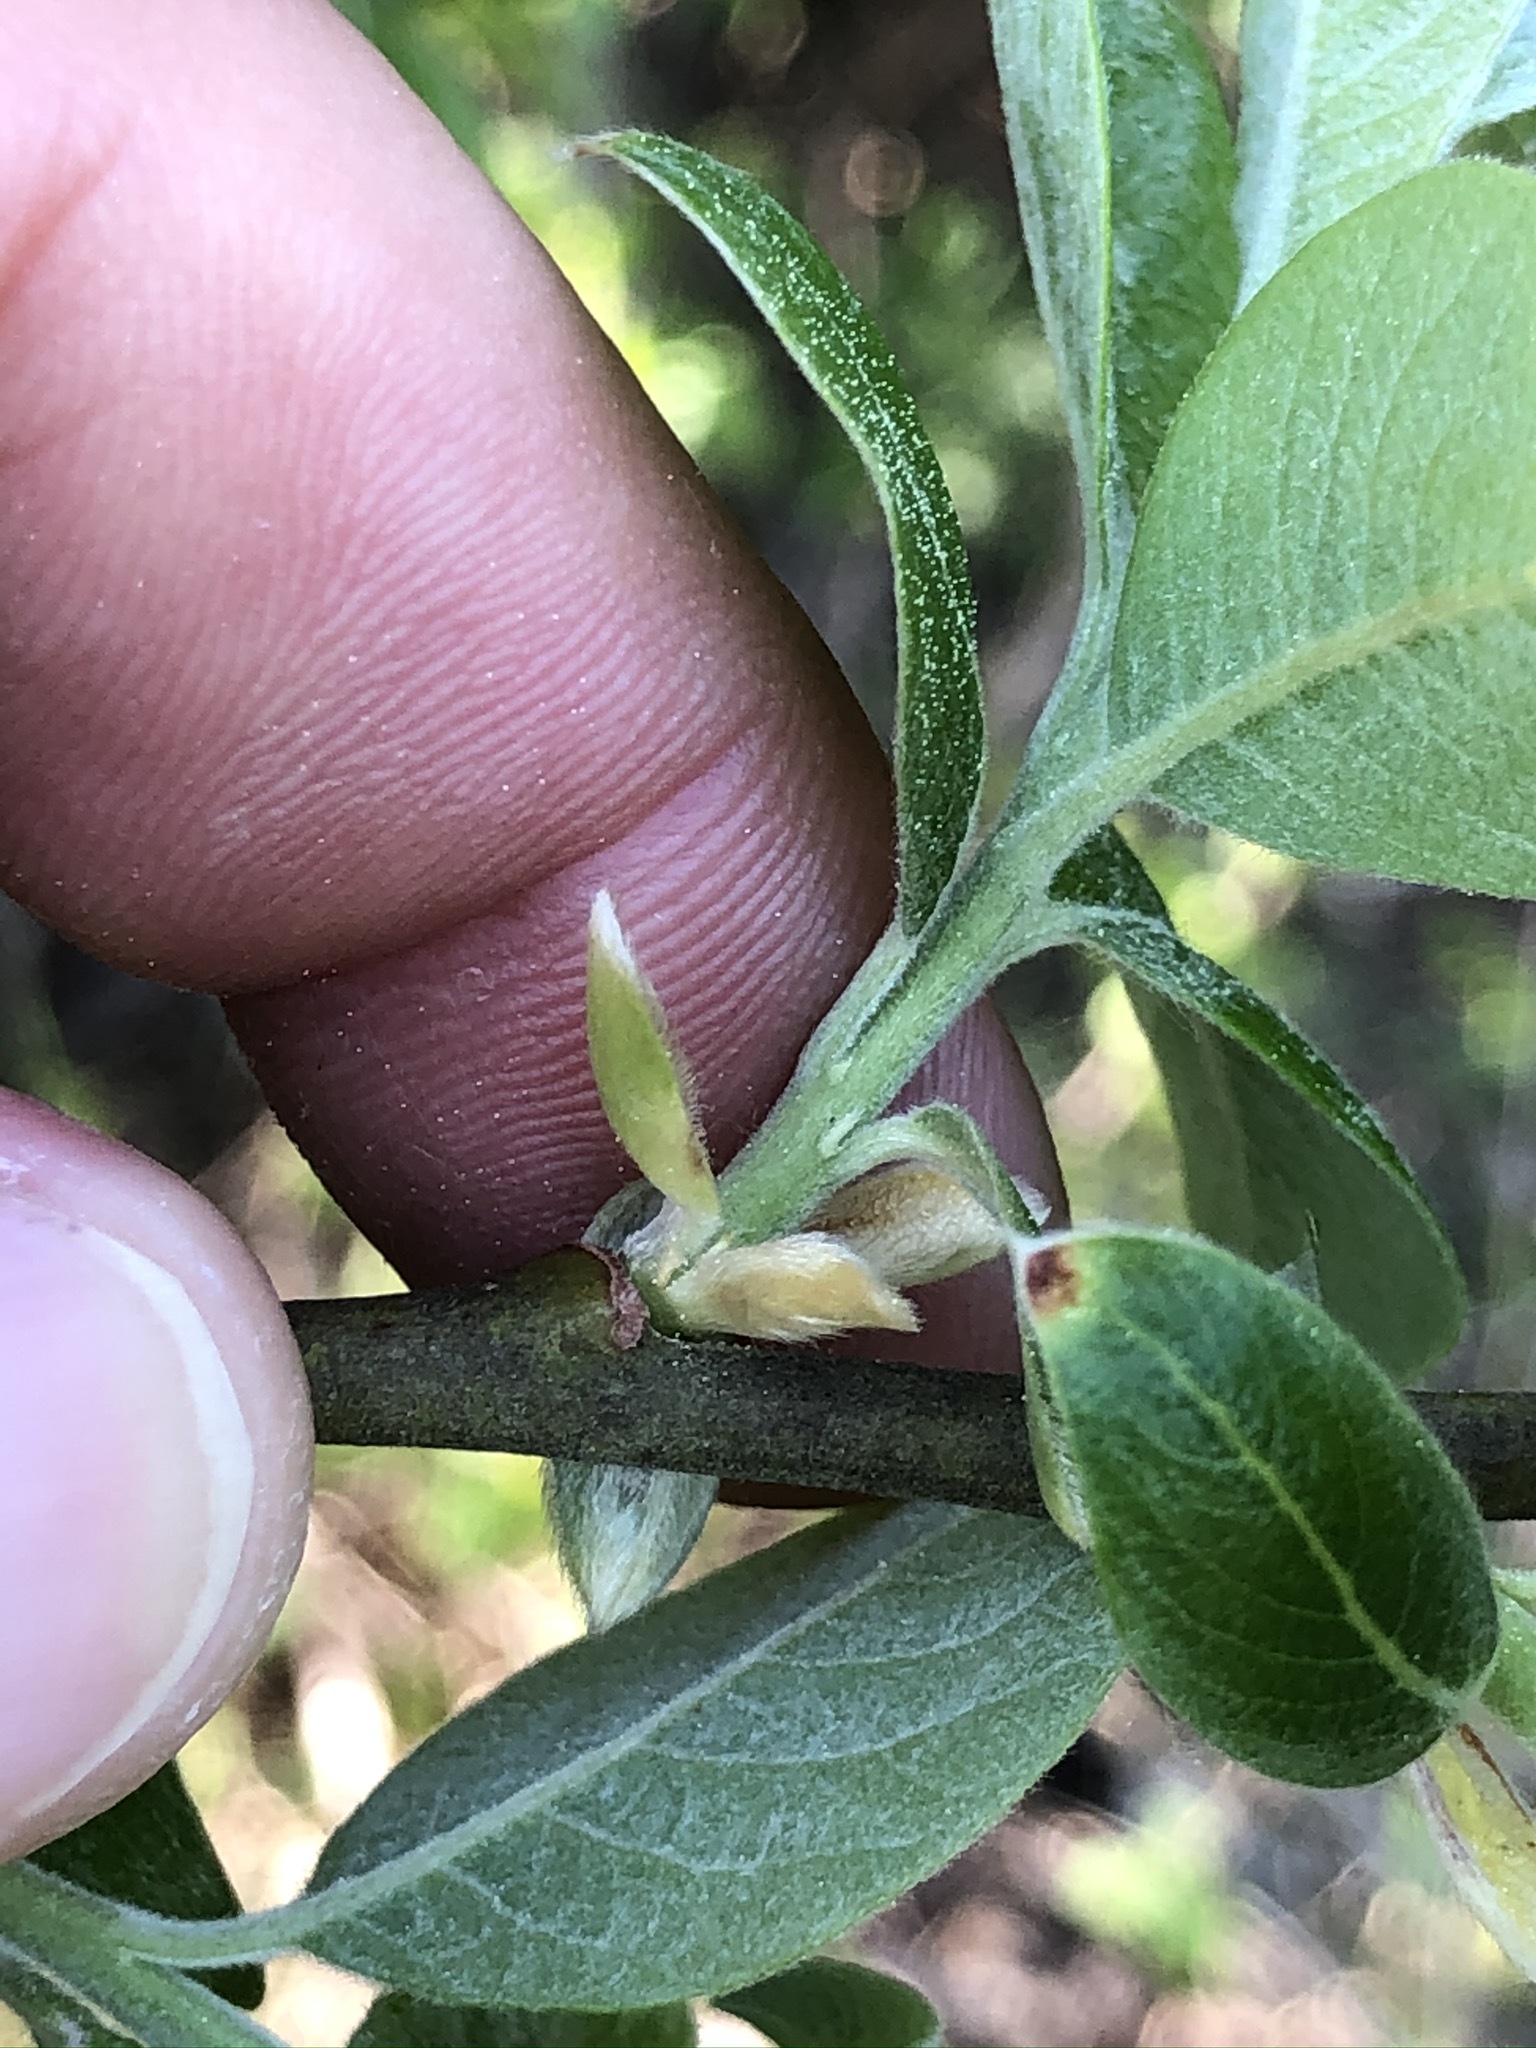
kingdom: Plantae
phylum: Tracheophyta
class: Magnoliopsida
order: Malpighiales
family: Salicaceae
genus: Salix
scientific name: Salix caprea
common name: Goat willow
